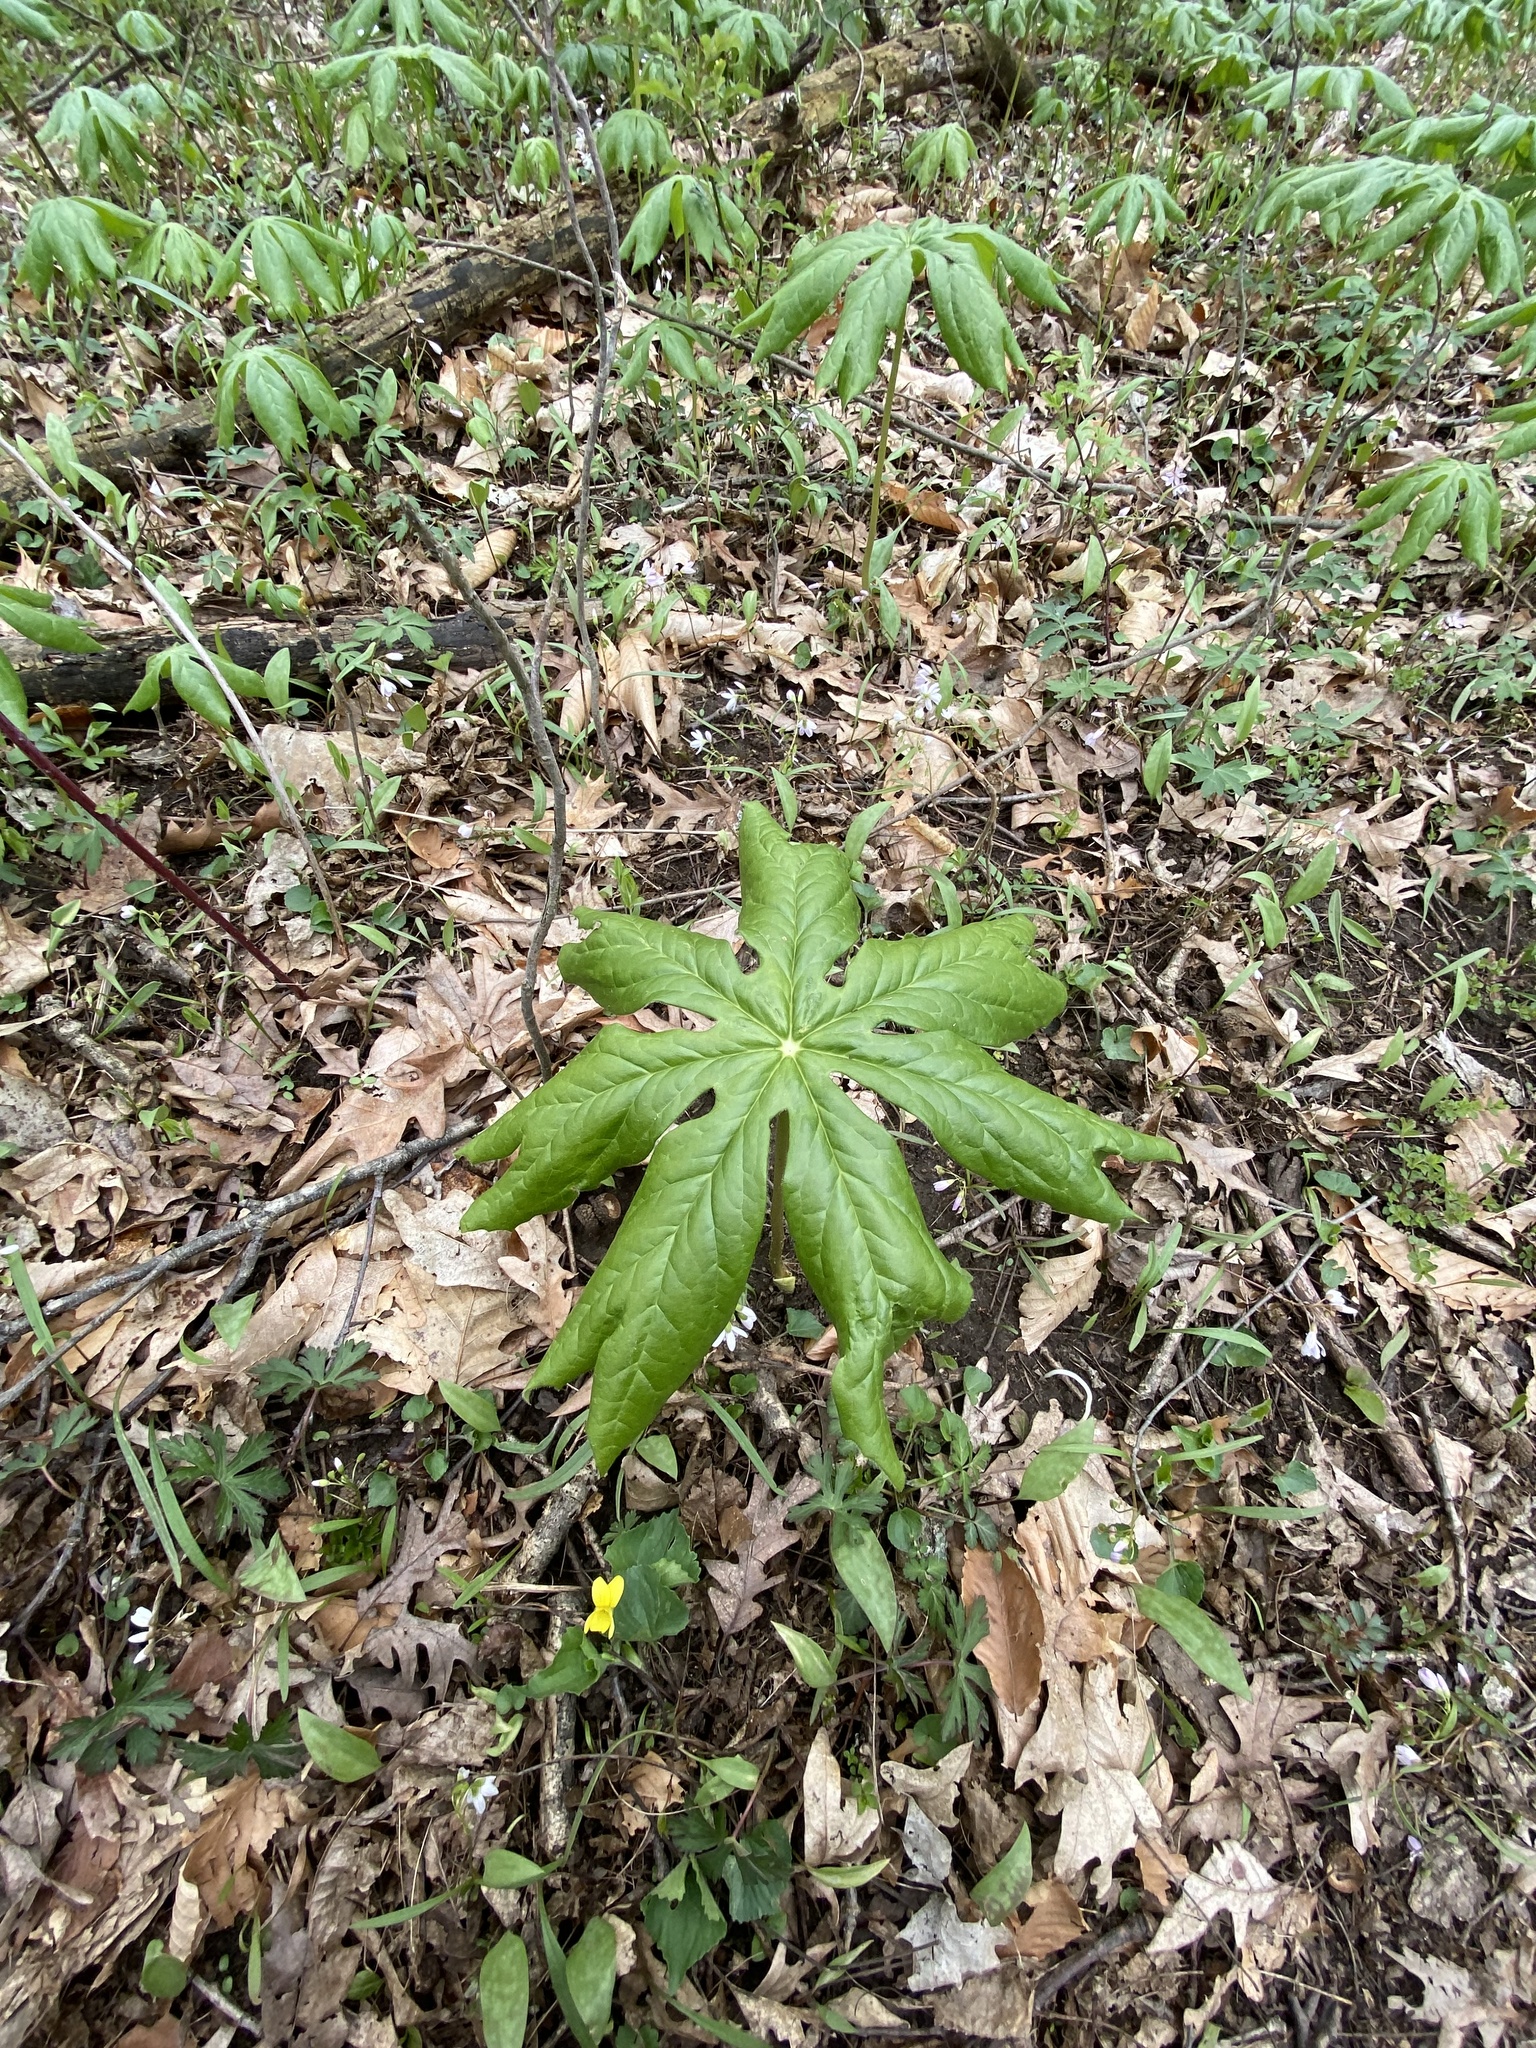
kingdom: Plantae
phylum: Tracheophyta
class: Magnoliopsida
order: Ranunculales
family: Berberidaceae
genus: Podophyllum
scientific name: Podophyllum peltatum
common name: Wild mandrake
